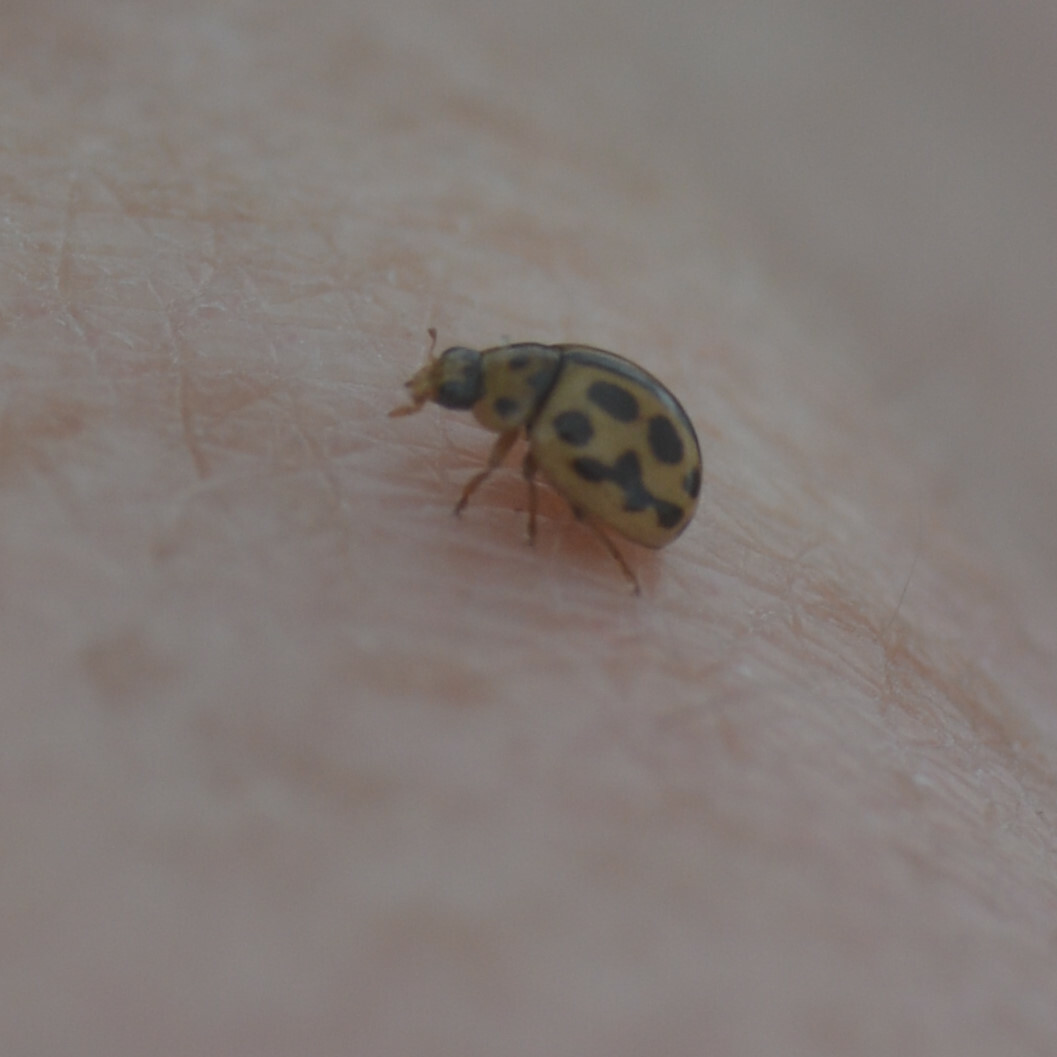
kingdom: Animalia
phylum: Arthropoda
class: Insecta
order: Coleoptera
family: Coccinellidae
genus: Tytthaspis
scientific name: Tytthaspis sedecimpunctata
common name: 16-spot ladybird
